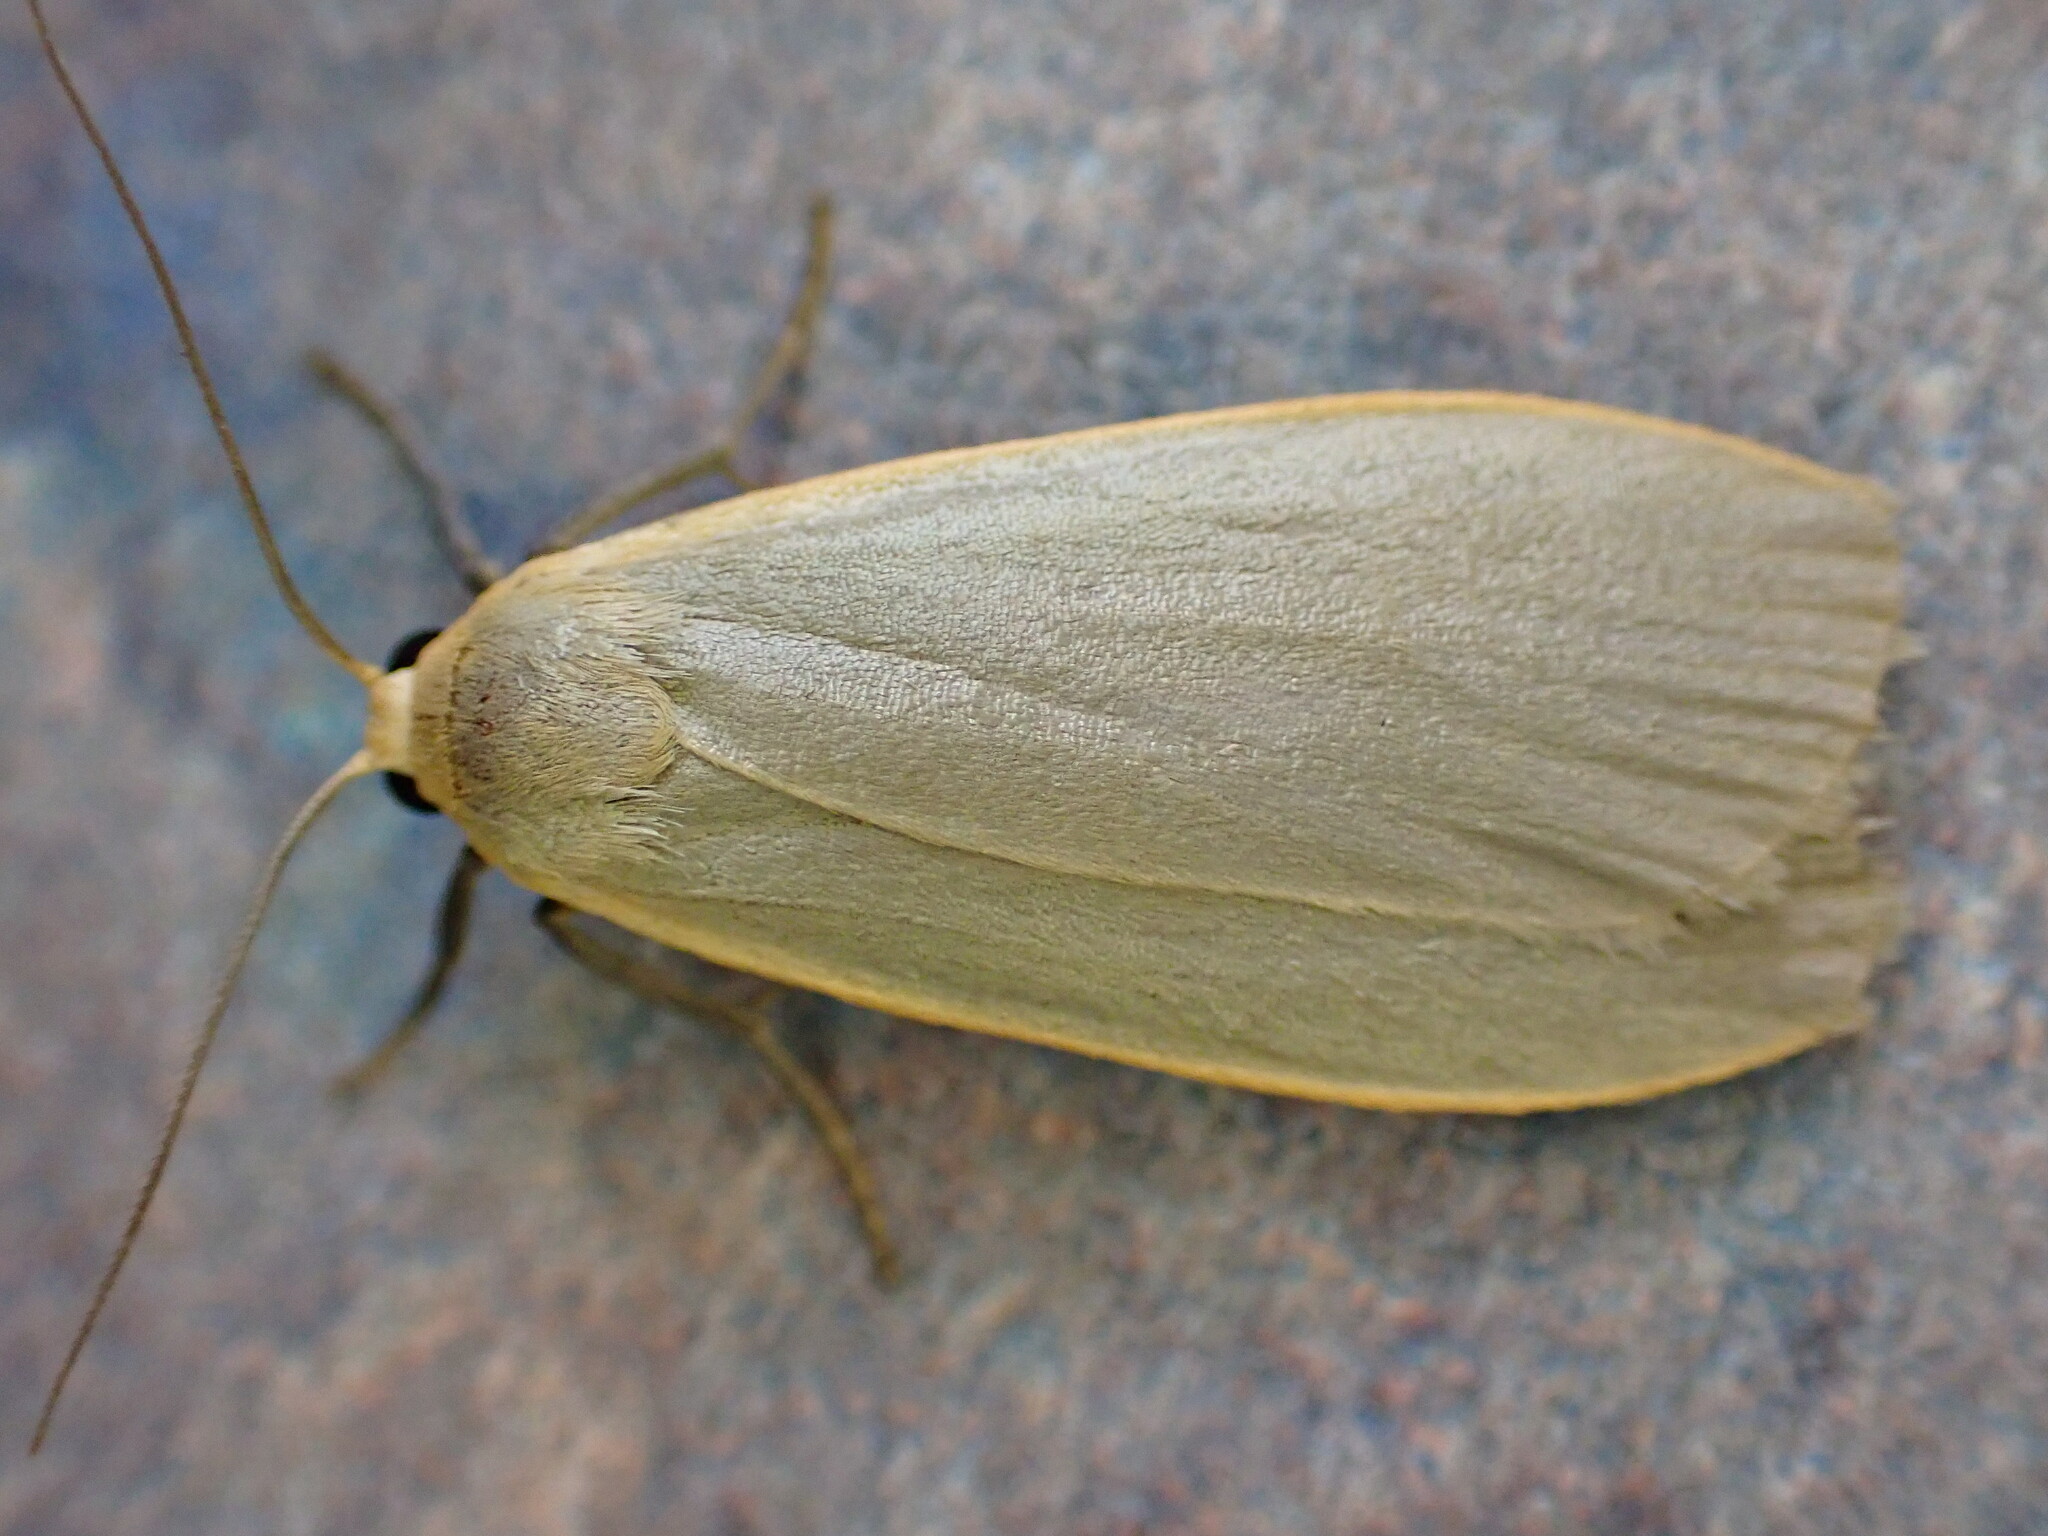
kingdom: Animalia
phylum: Arthropoda
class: Insecta
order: Lepidoptera
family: Erebidae
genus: Collita
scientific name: Collita griseola
